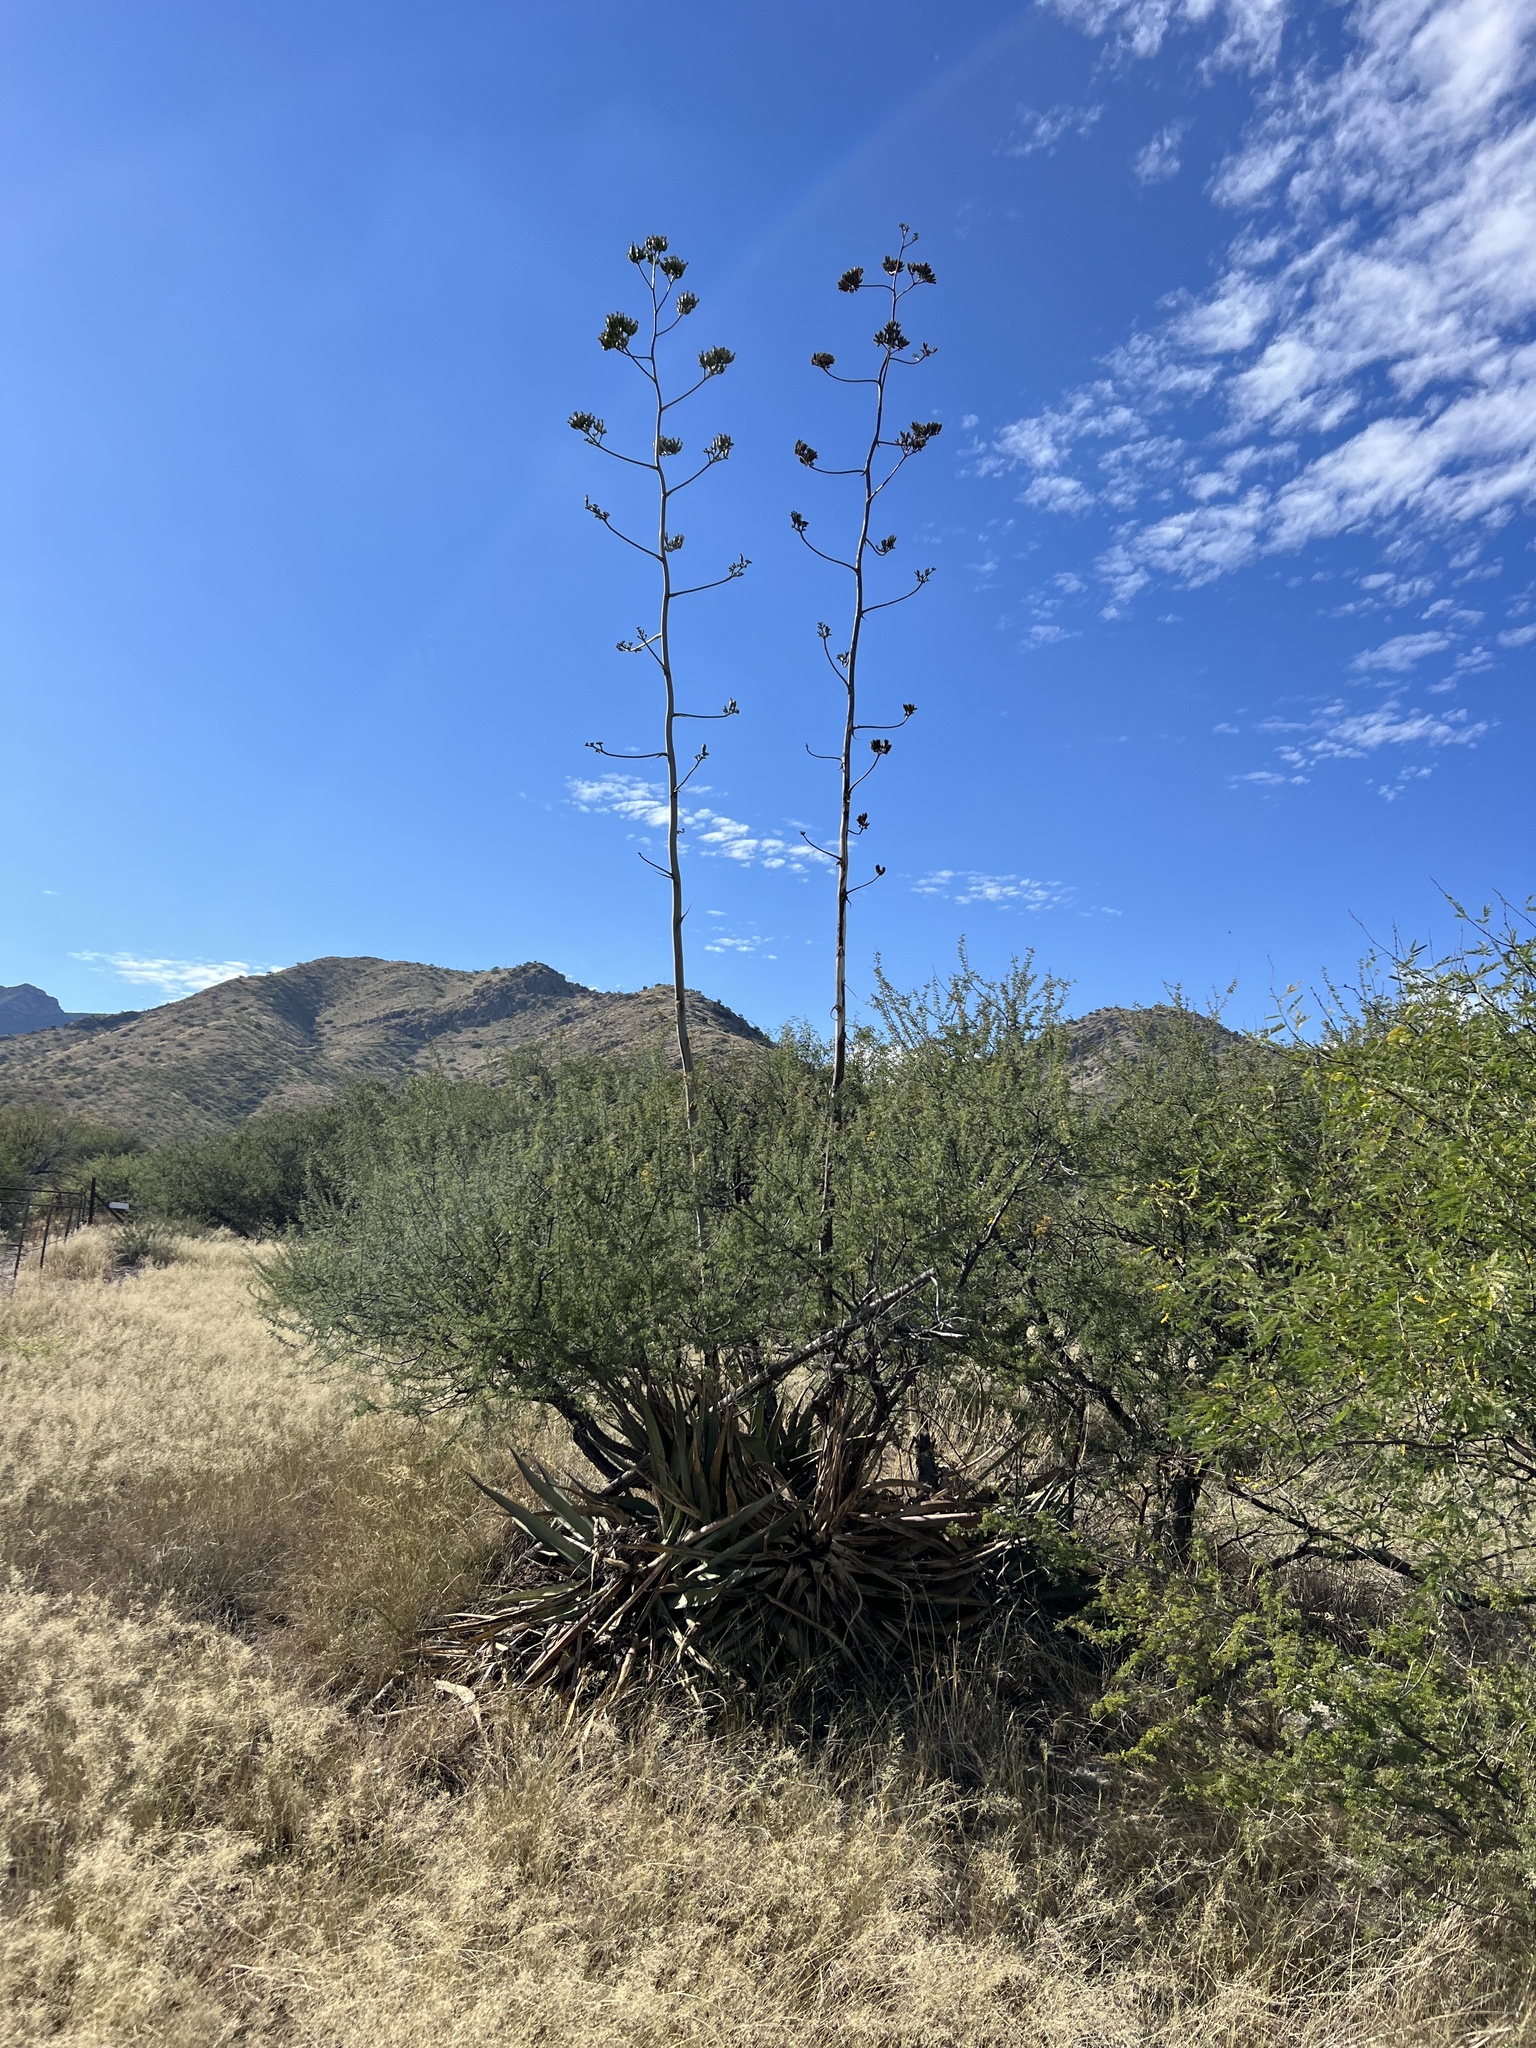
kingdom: Plantae
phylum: Tracheophyta
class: Liliopsida
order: Asparagales
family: Asparagaceae
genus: Agave
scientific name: Agave palmeri
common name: Palmer agave
